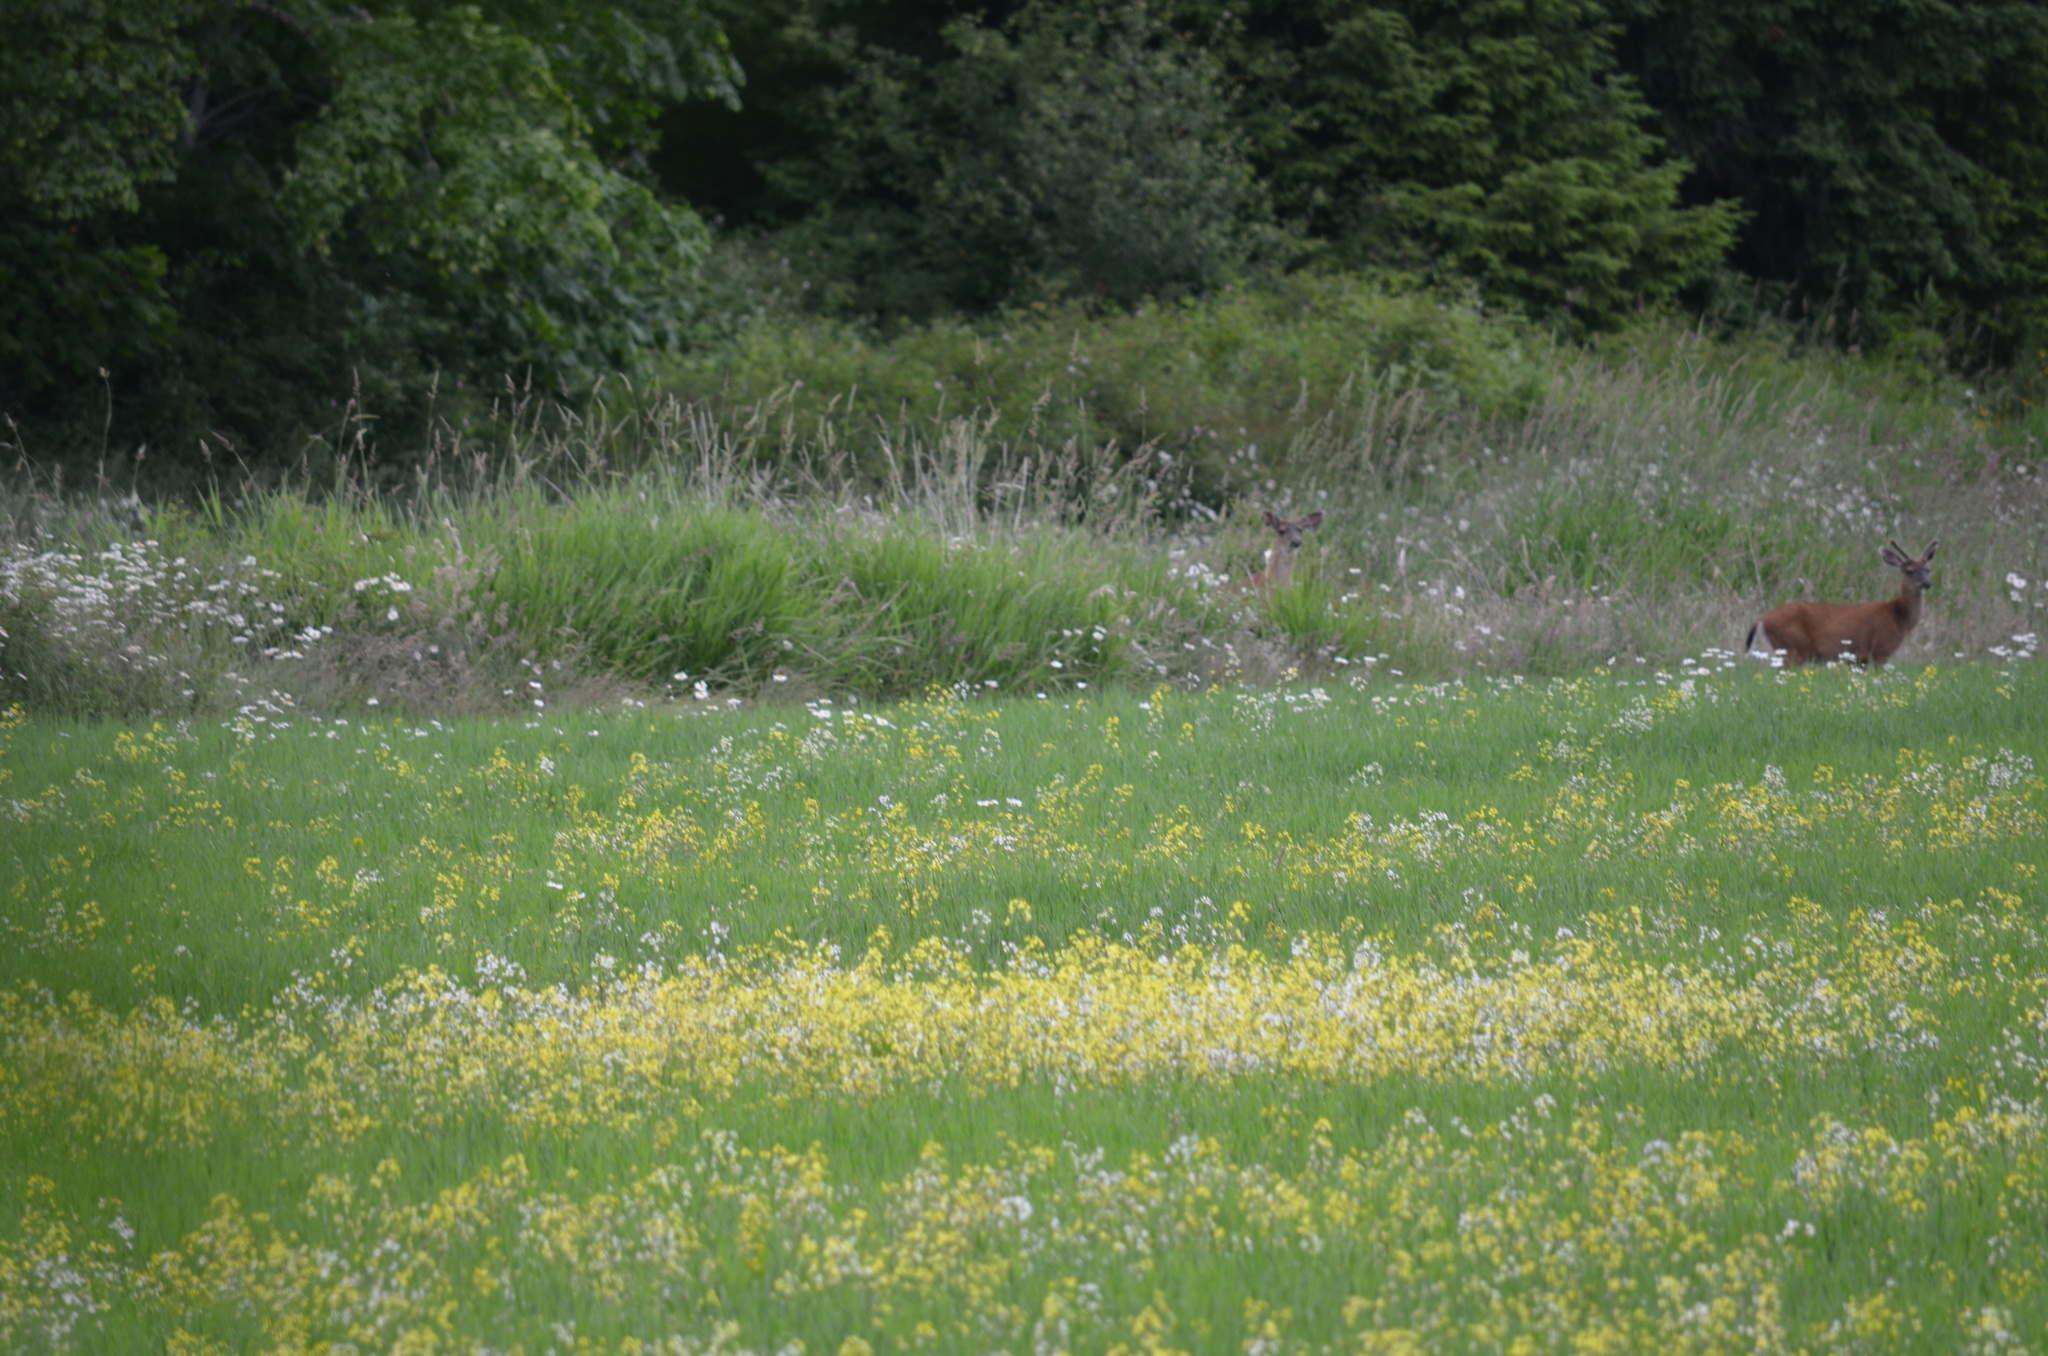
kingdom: Animalia
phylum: Chordata
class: Mammalia
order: Artiodactyla
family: Cervidae
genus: Odocoileus
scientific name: Odocoileus hemionus
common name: Mule deer
